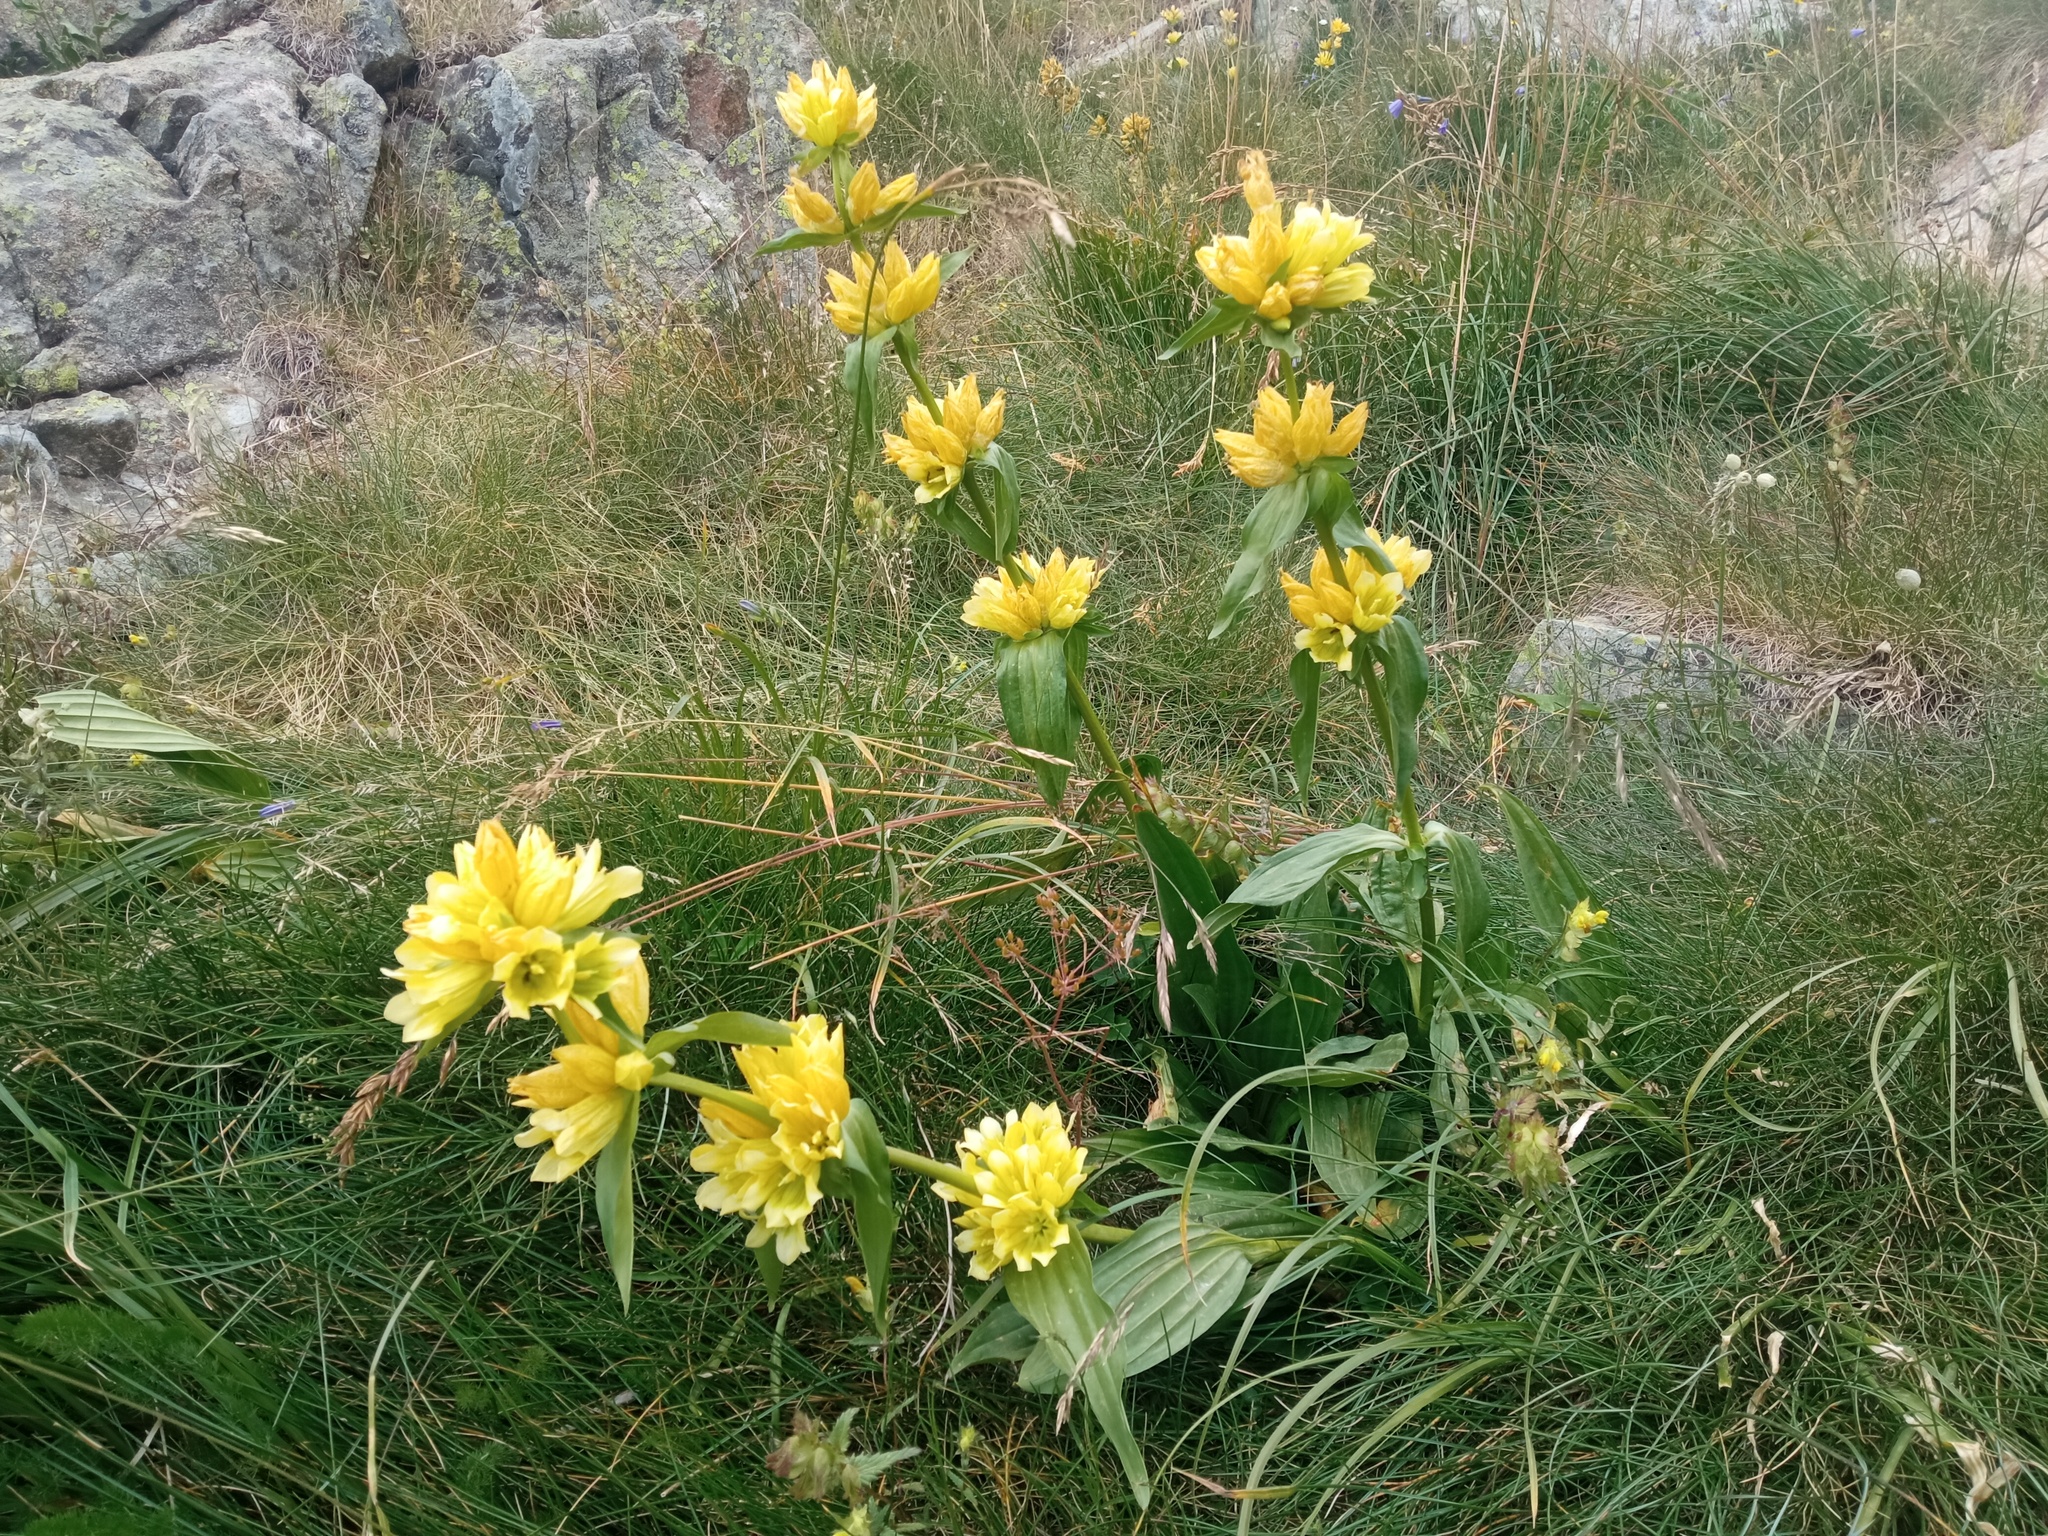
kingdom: Plantae
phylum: Tracheophyta
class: Magnoliopsida
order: Gentianales
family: Gentianaceae
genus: Gentiana
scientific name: Gentiana burseri
